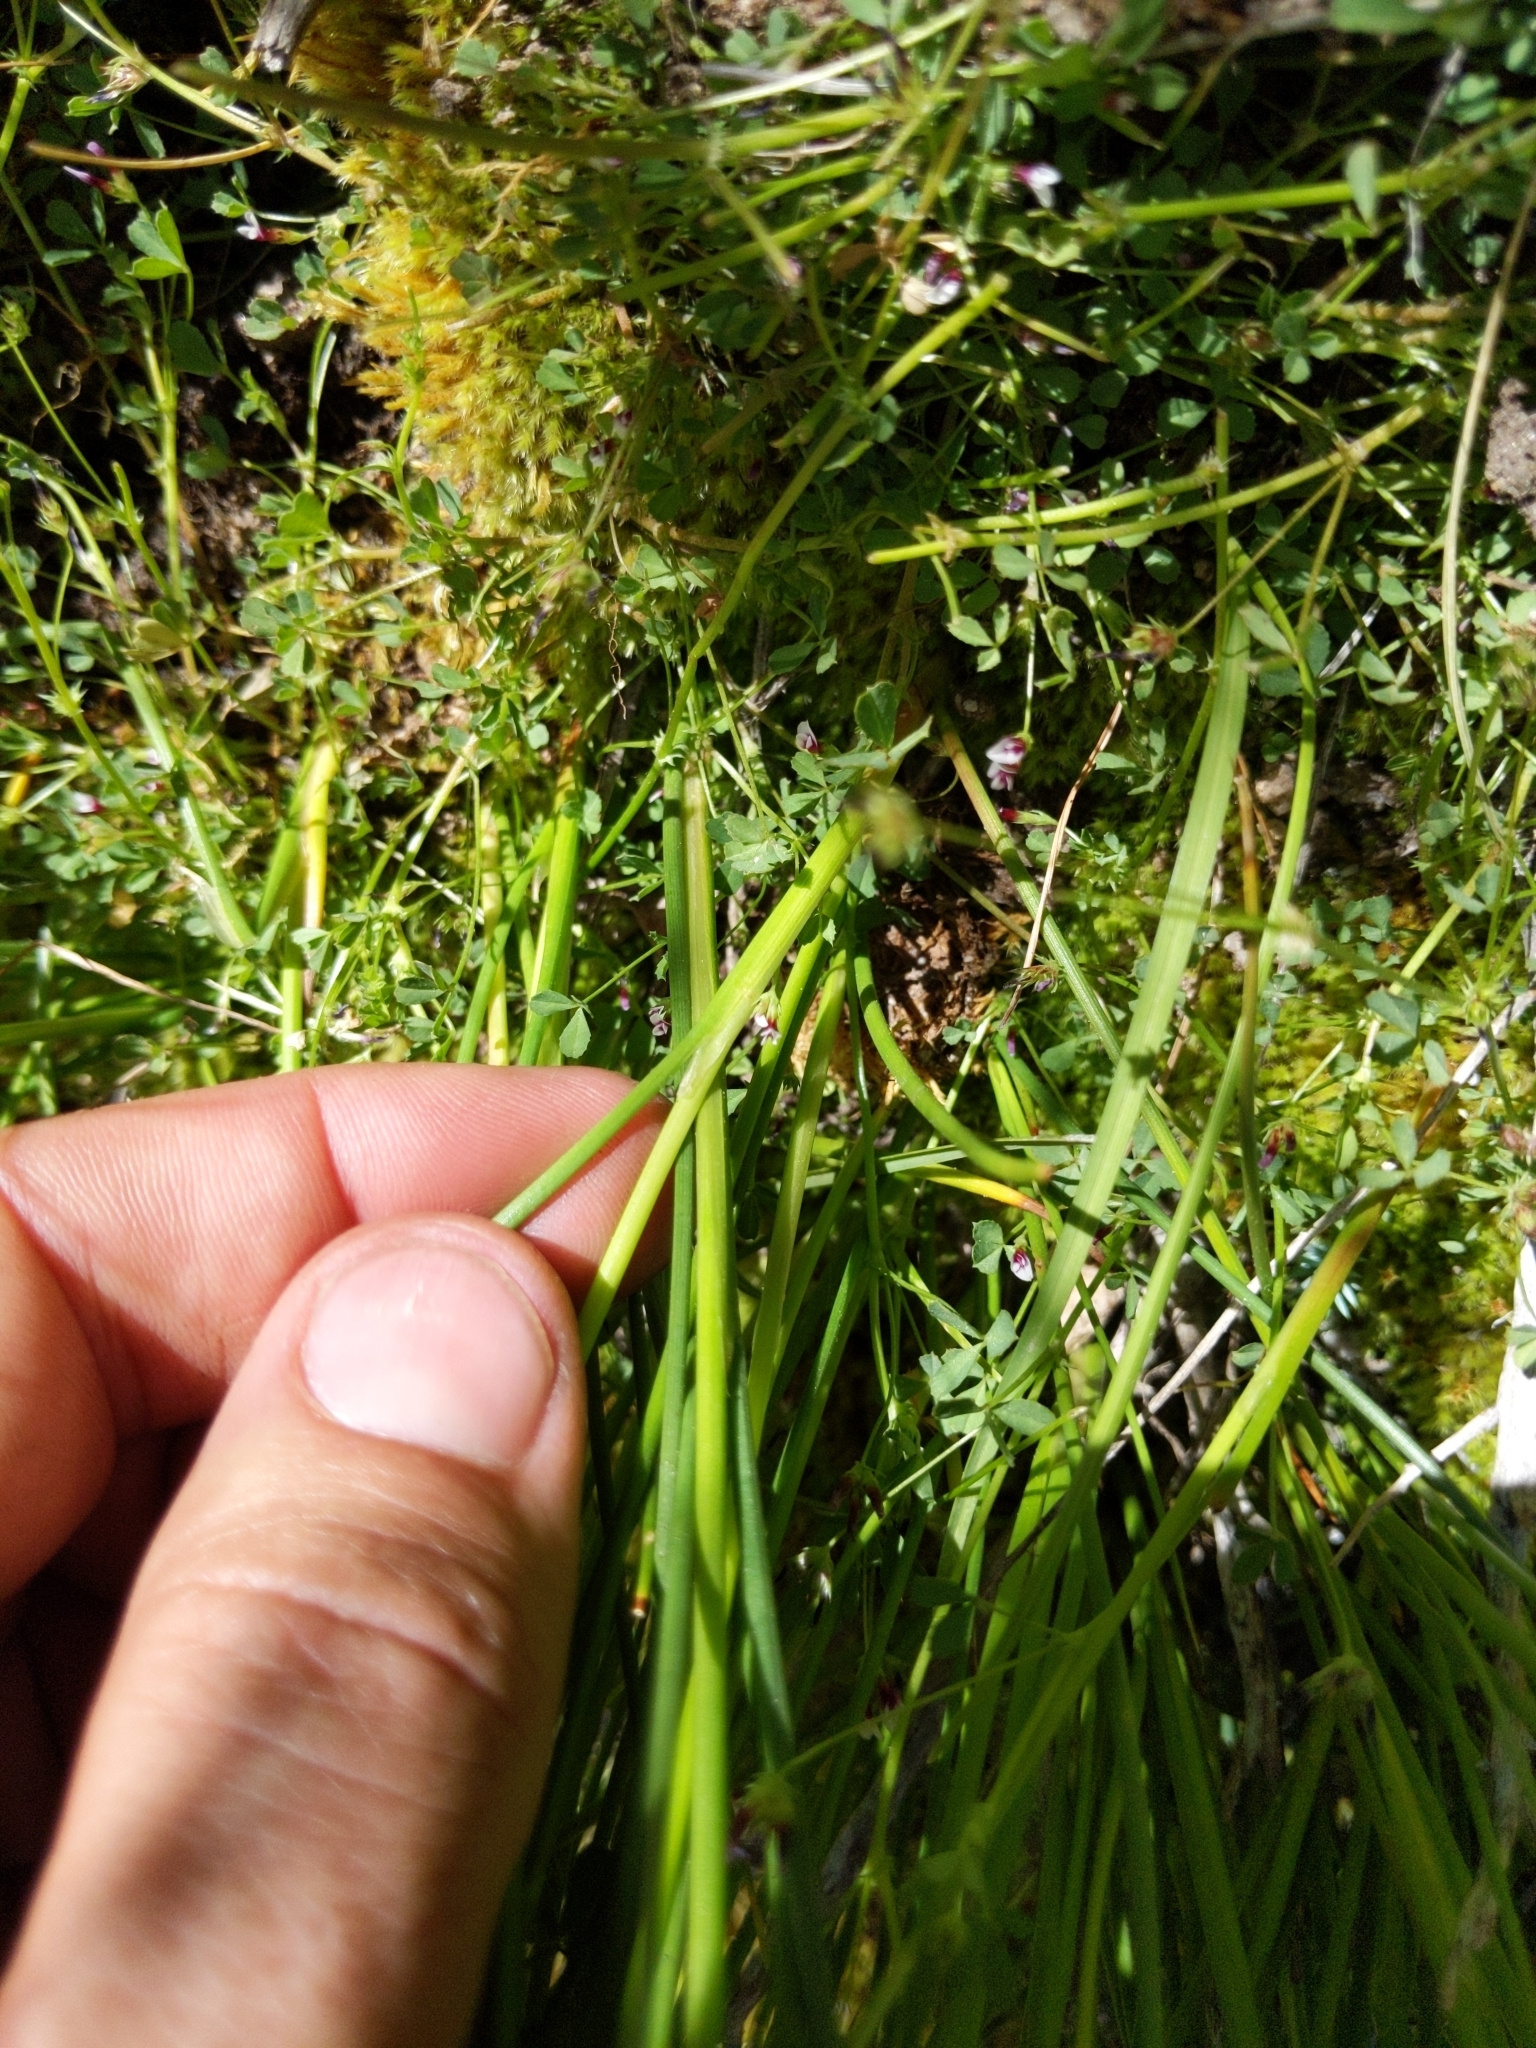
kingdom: Plantae
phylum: Tracheophyta
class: Liliopsida
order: Poales
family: Juncaceae
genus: Juncus
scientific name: Juncus chlorocephalus
